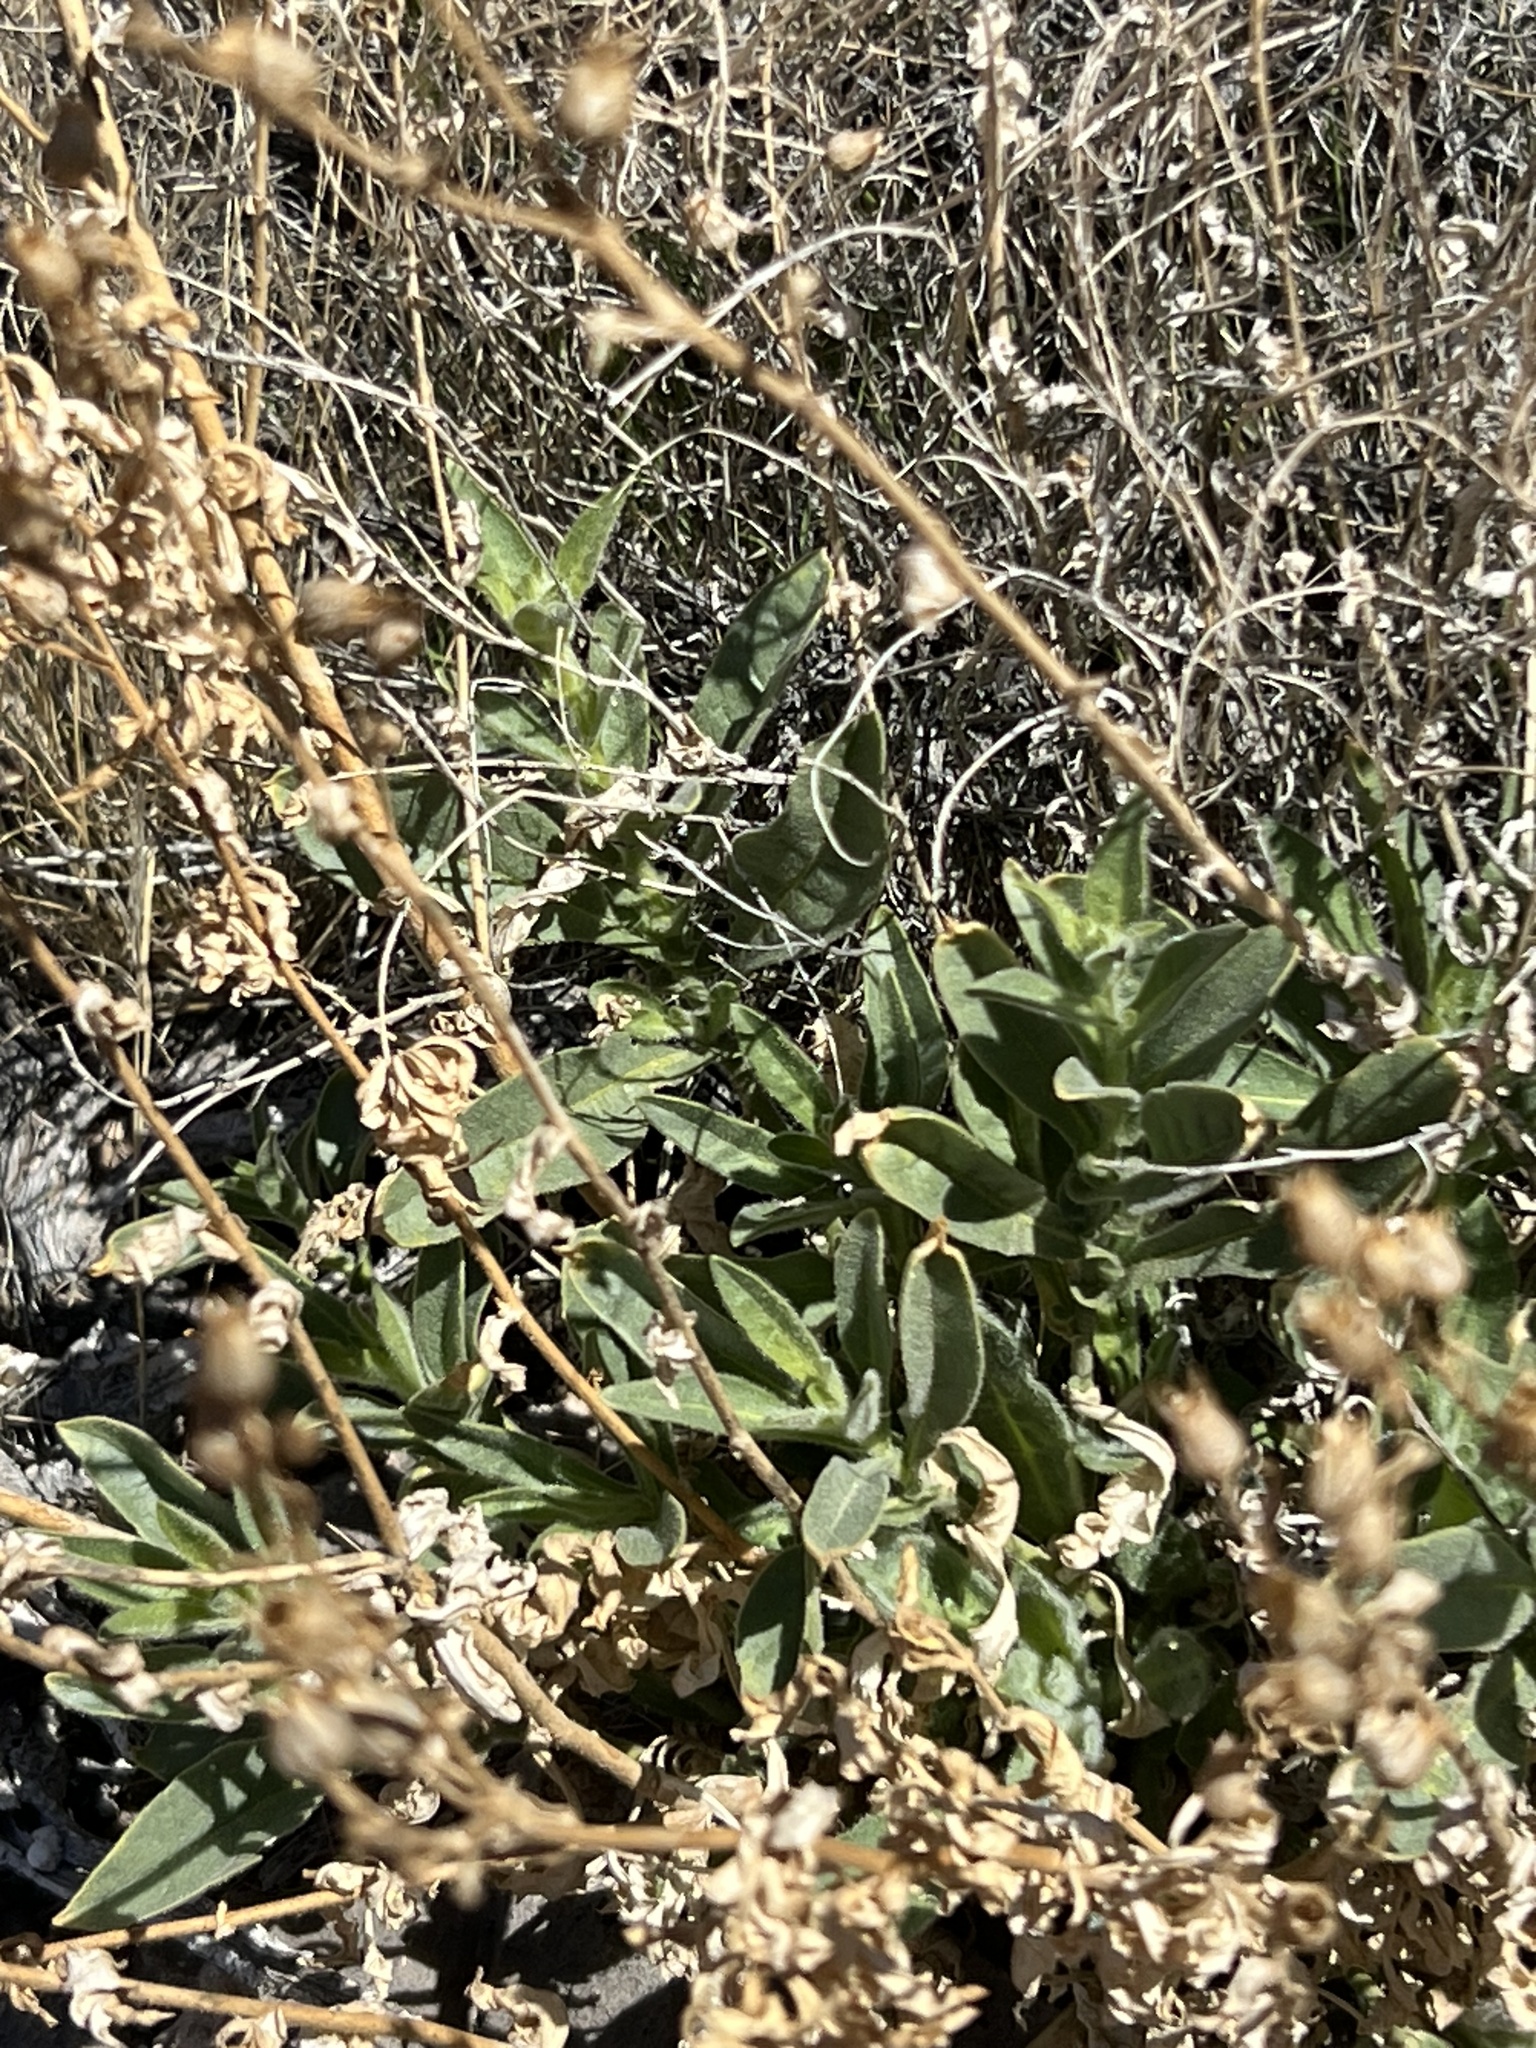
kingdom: Plantae
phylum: Tracheophyta
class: Magnoliopsida
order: Solanales
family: Solanaceae
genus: Nicotiana
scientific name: Nicotiana obtusifolia
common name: Desert tobacco
